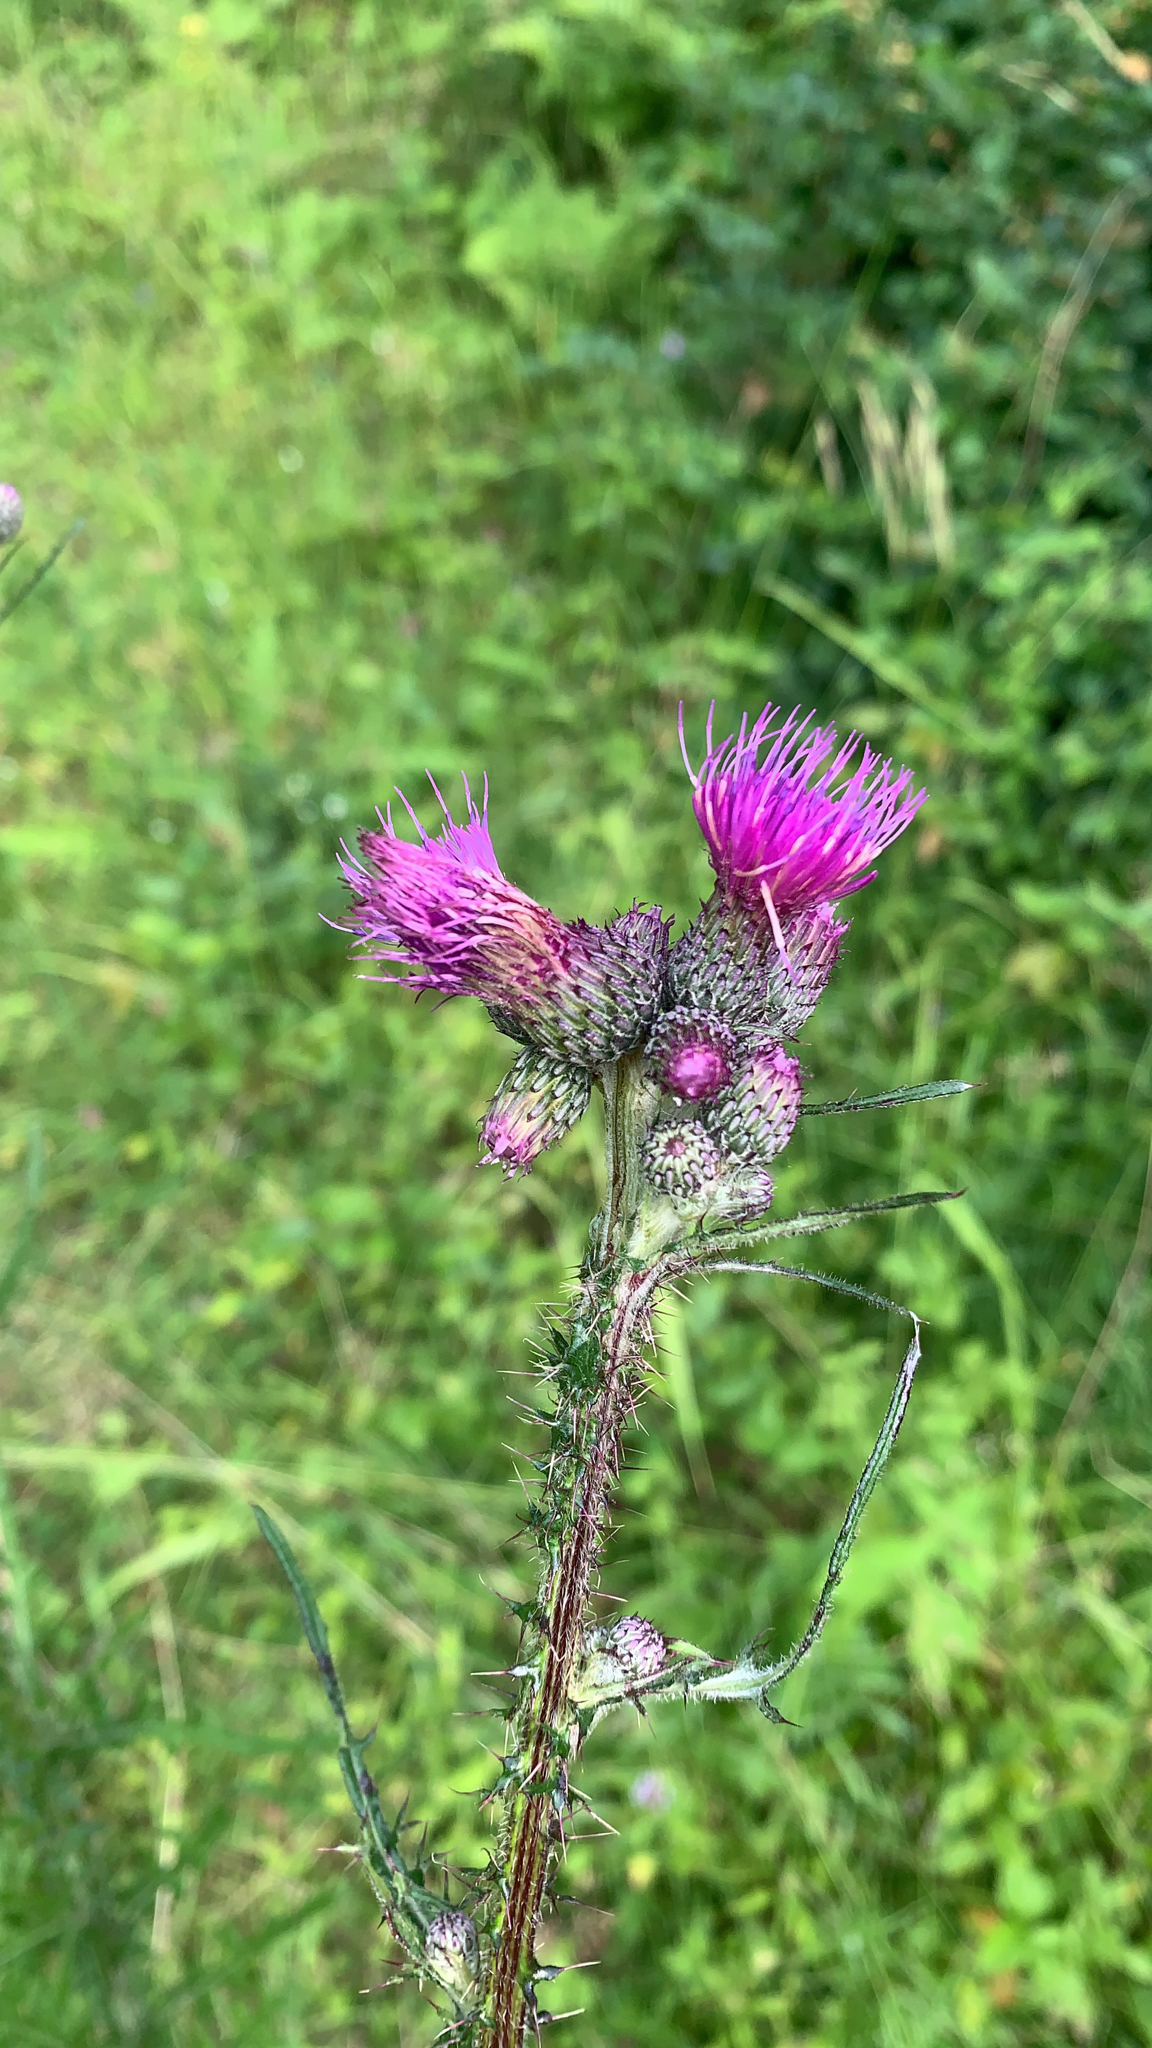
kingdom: Plantae
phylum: Tracheophyta
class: Magnoliopsida
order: Asterales
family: Asteraceae
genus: Cirsium
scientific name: Cirsium palustre
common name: Marsh thistle
